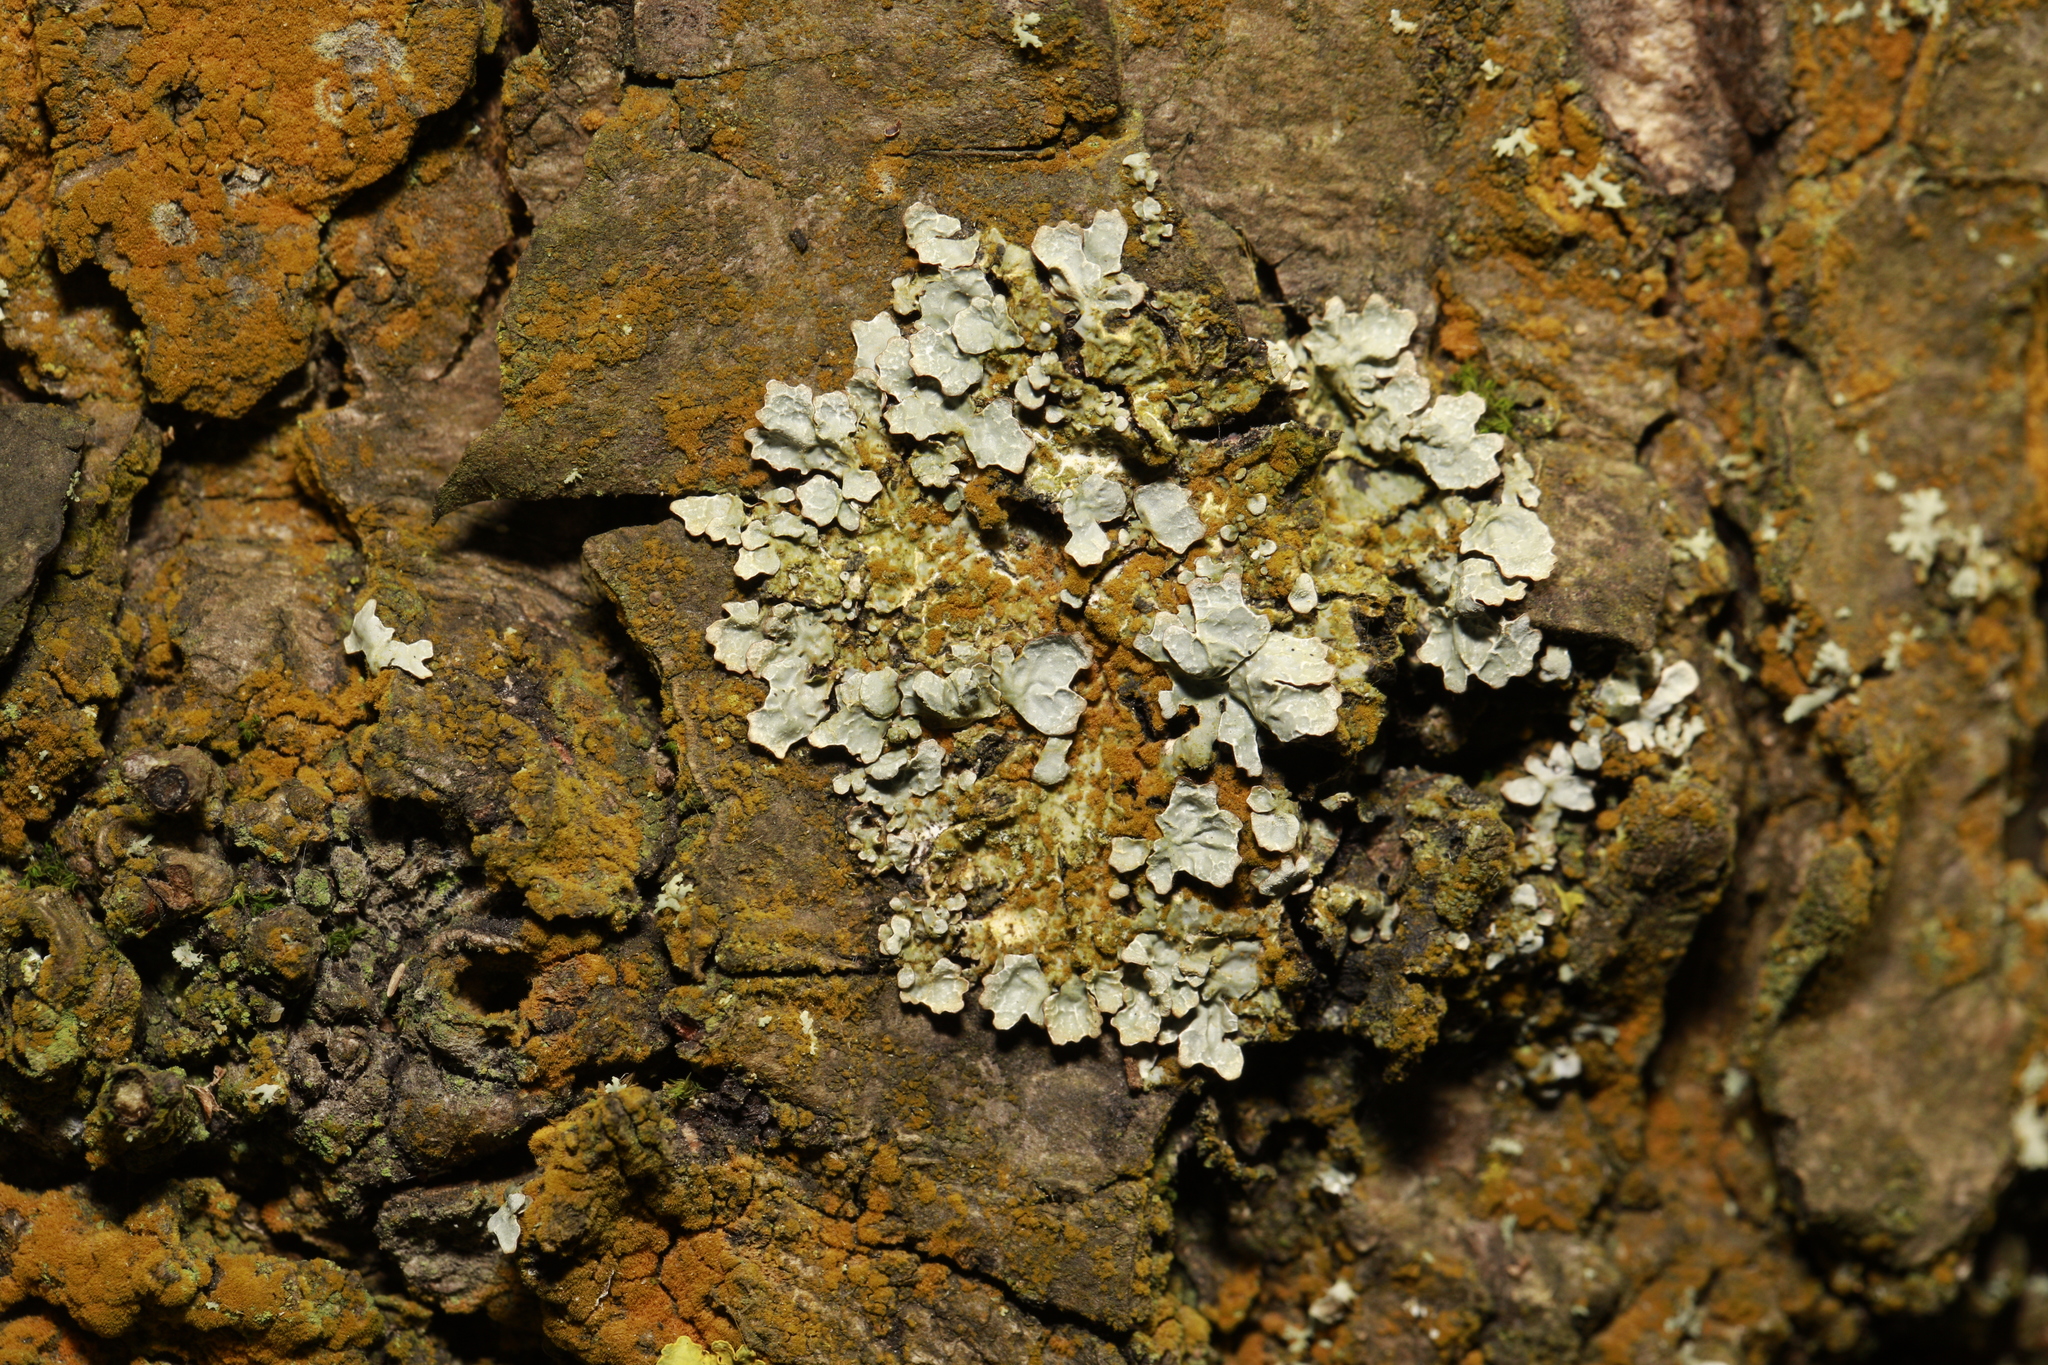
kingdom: Fungi
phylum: Ascomycota
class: Lecanoromycetes
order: Lecanorales
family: Parmeliaceae
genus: Parmelia
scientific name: Parmelia sulcata
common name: Netted shield lichen
